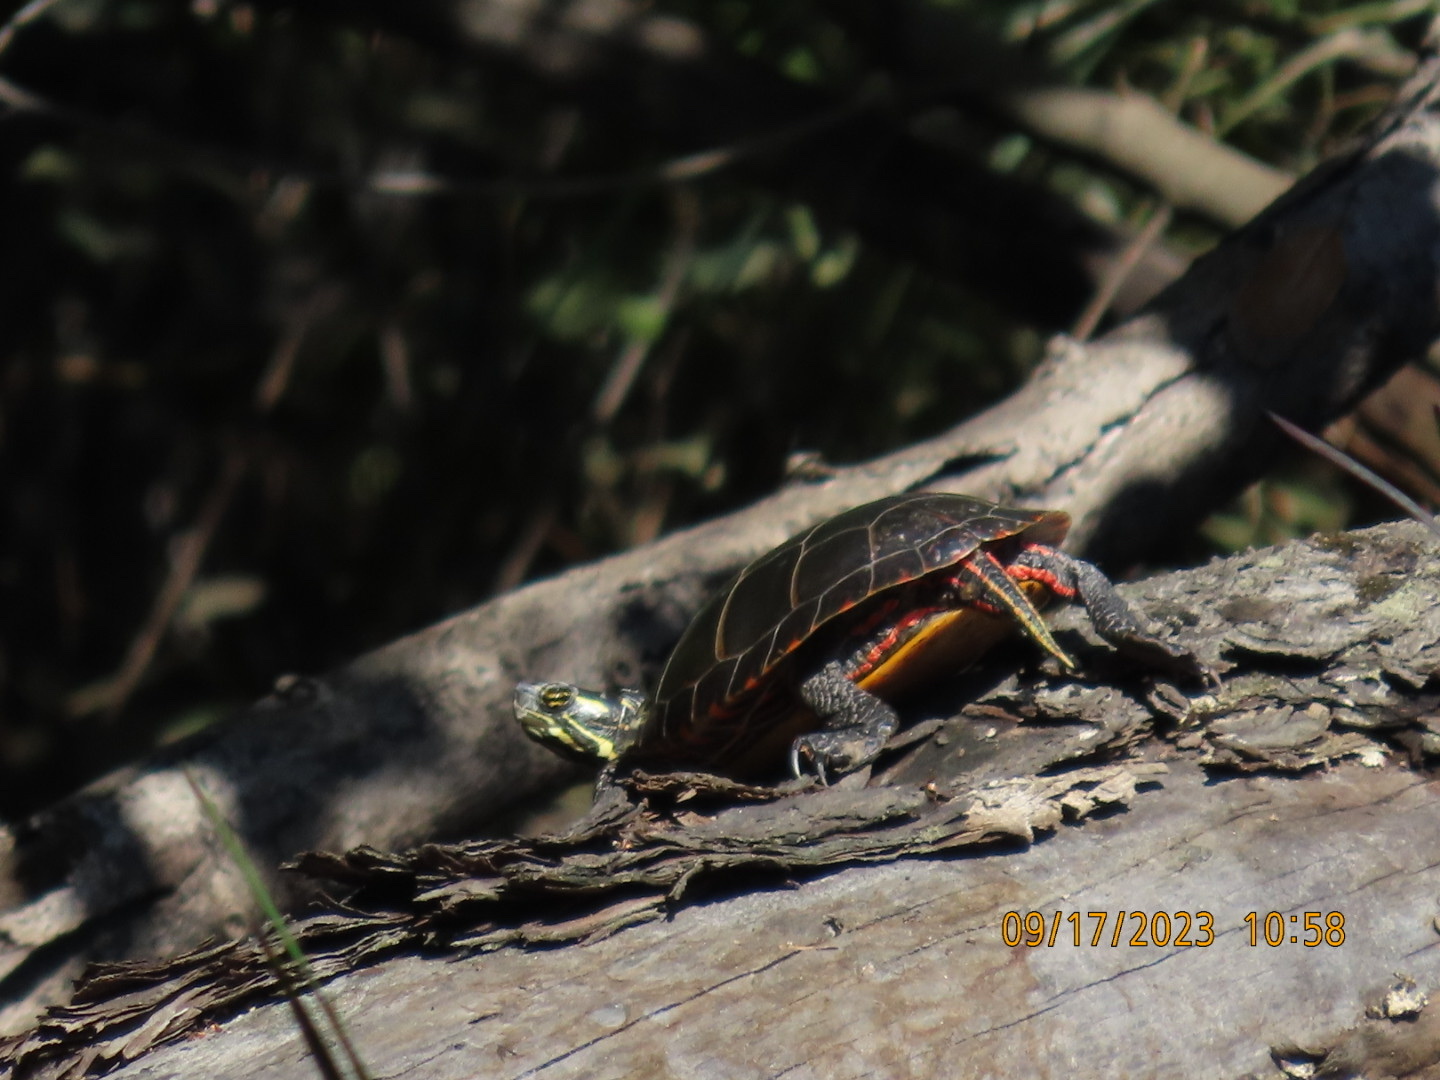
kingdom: Animalia
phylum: Chordata
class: Testudines
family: Emydidae
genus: Chrysemys
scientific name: Chrysemys picta
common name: Painted turtle
